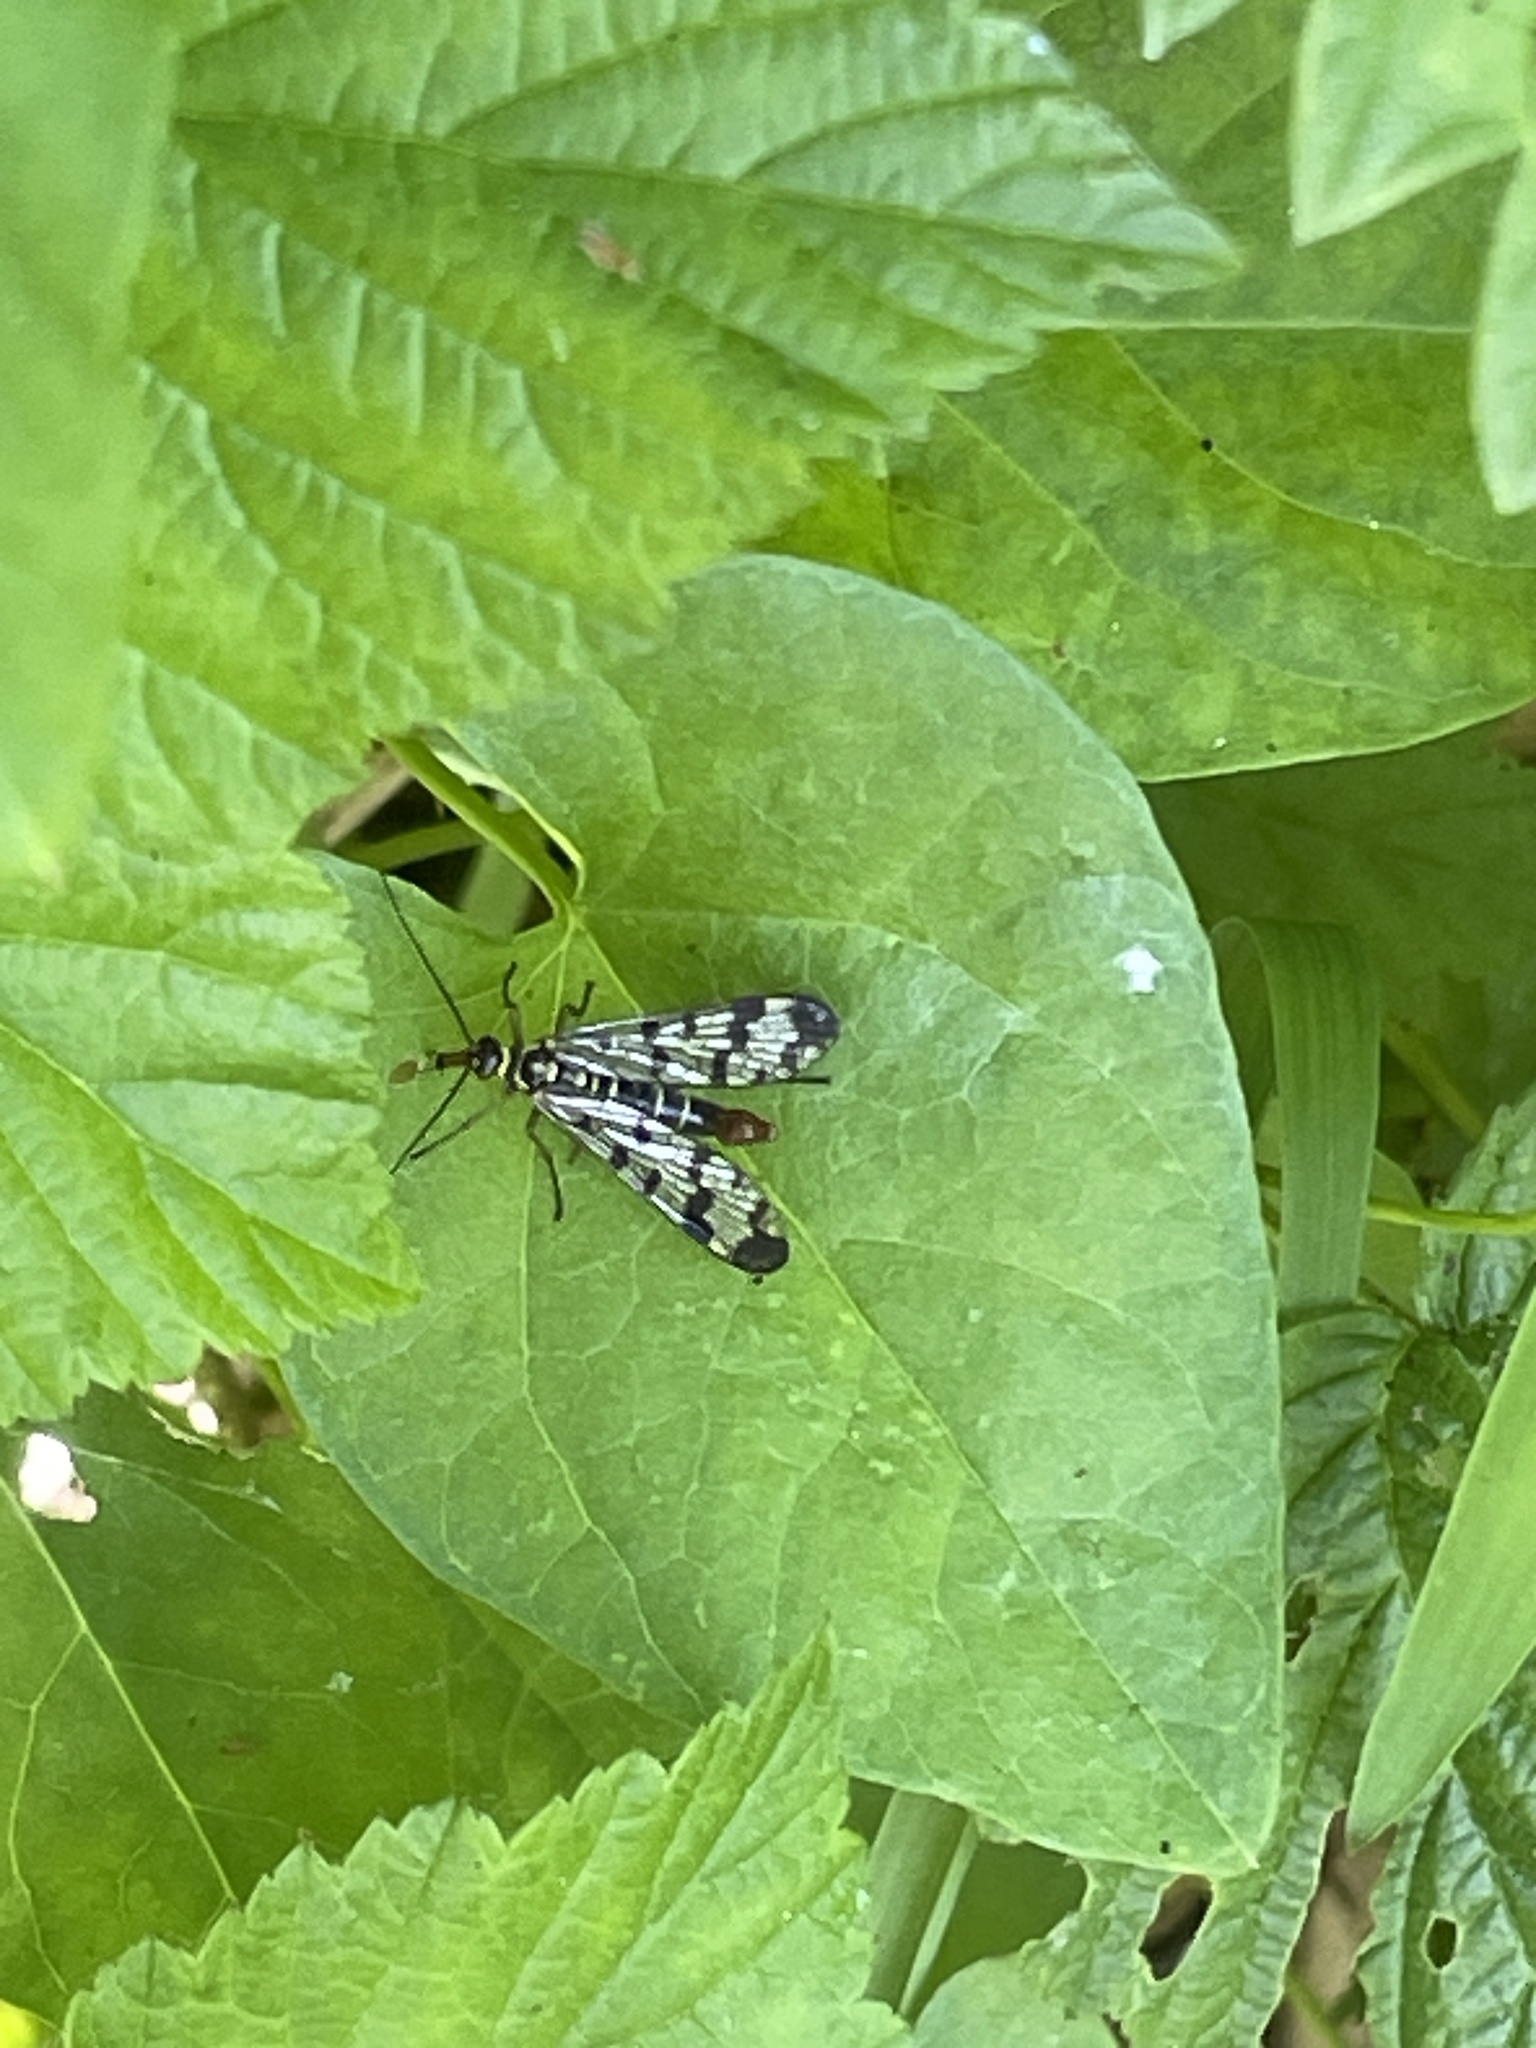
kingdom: Animalia
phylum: Arthropoda
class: Insecta
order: Mecoptera
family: Panorpidae
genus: Panorpa
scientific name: Panorpa communis
